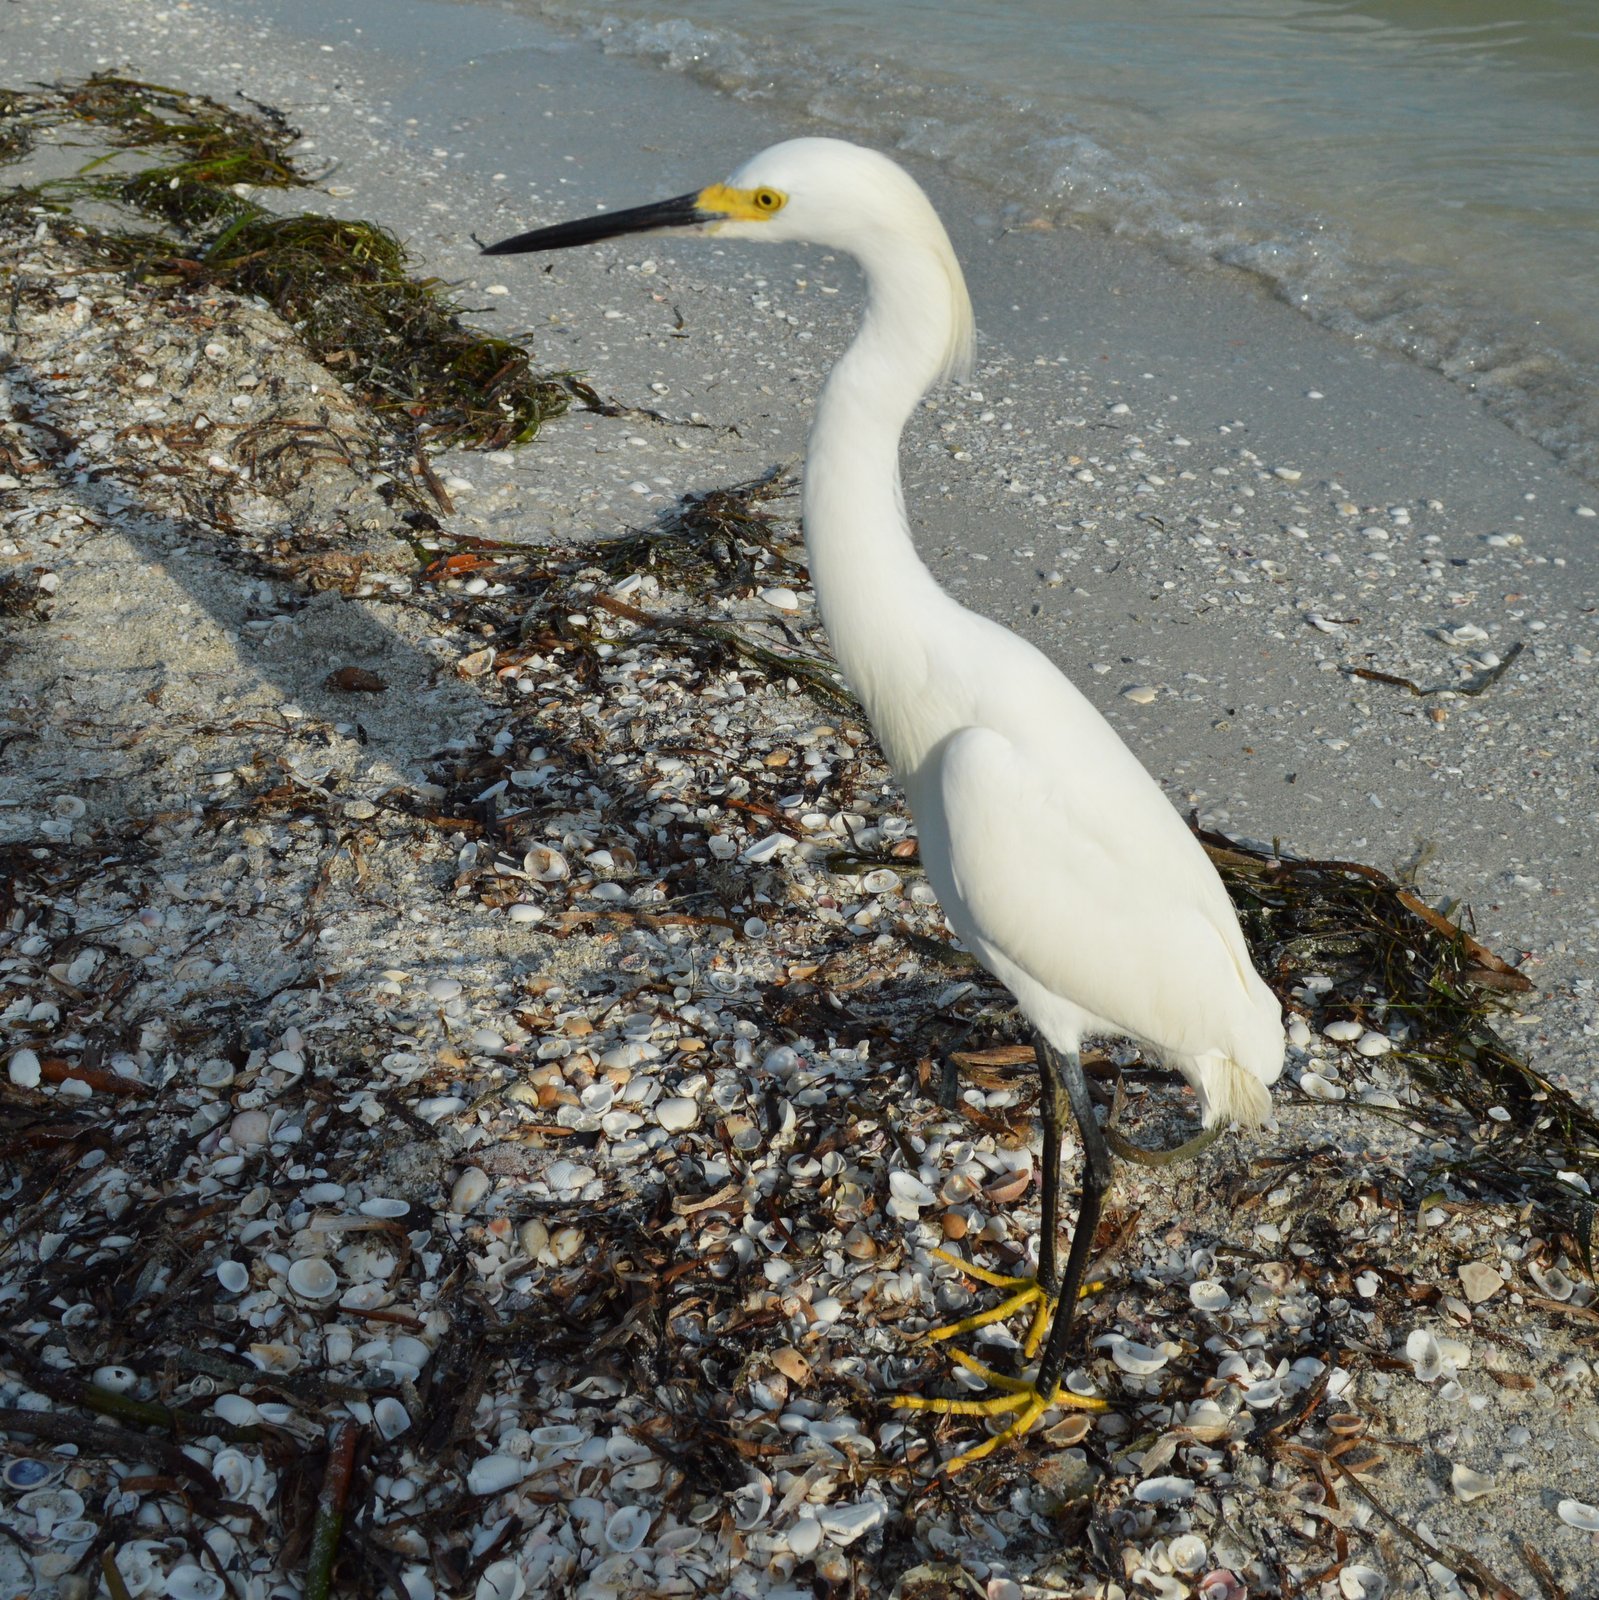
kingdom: Animalia
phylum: Chordata
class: Aves
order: Pelecaniformes
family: Ardeidae
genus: Egretta
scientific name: Egretta thula
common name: Snowy egret
